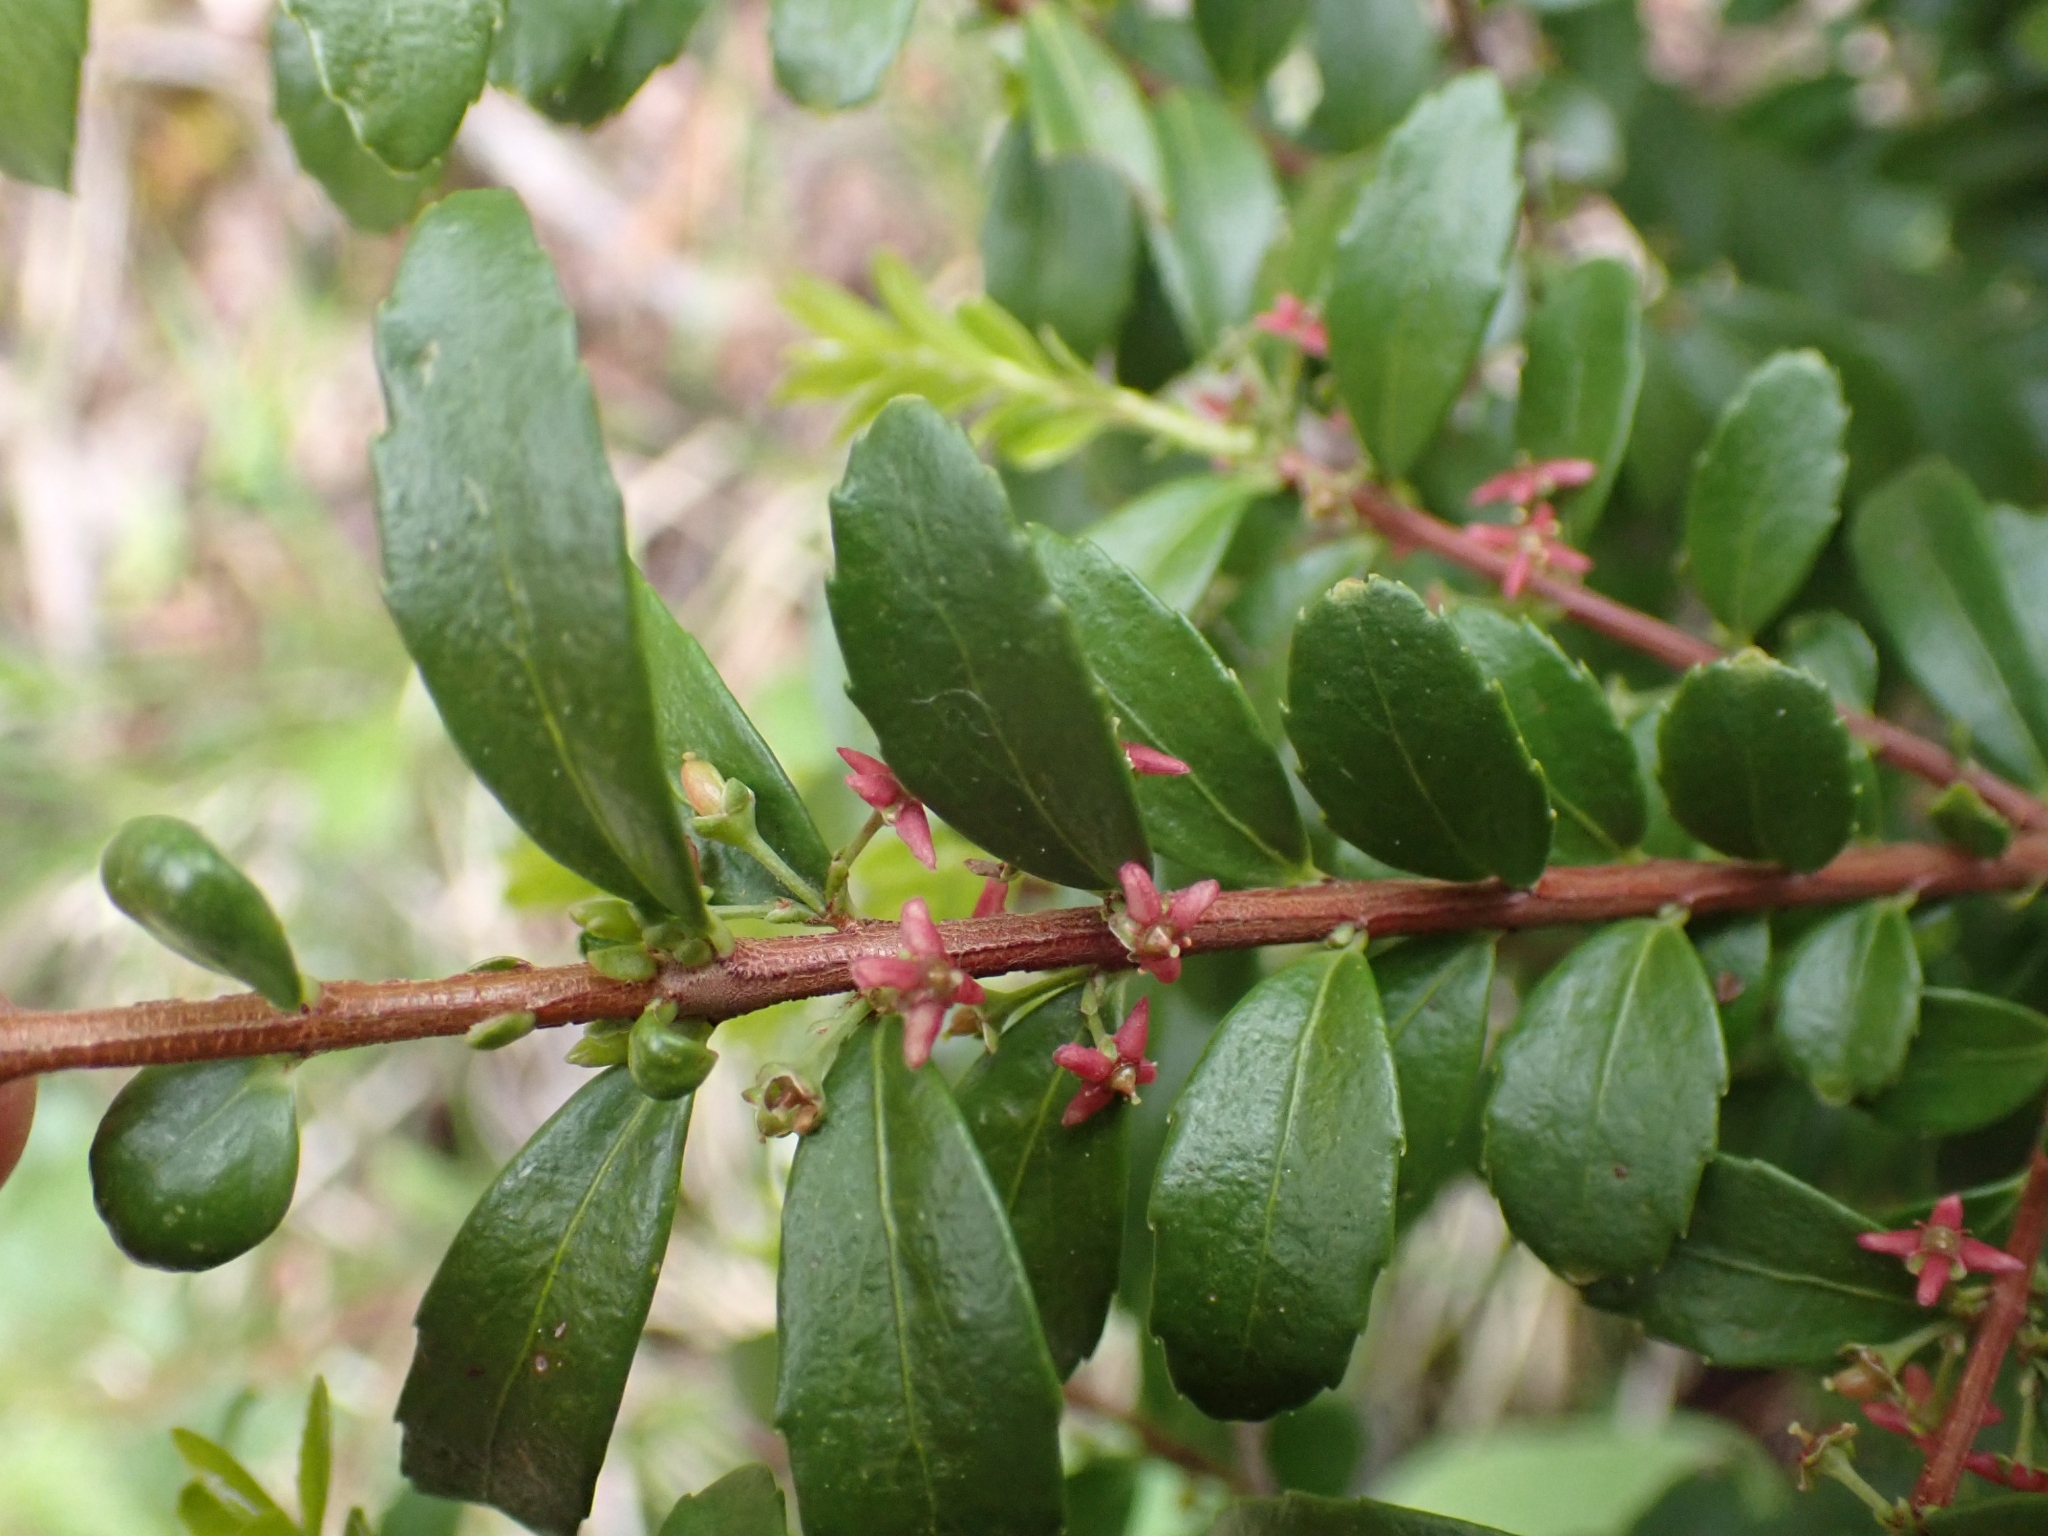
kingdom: Plantae
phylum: Tracheophyta
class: Magnoliopsida
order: Celastrales
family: Celastraceae
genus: Paxistima
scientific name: Paxistima myrsinites
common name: Mountain-lover
